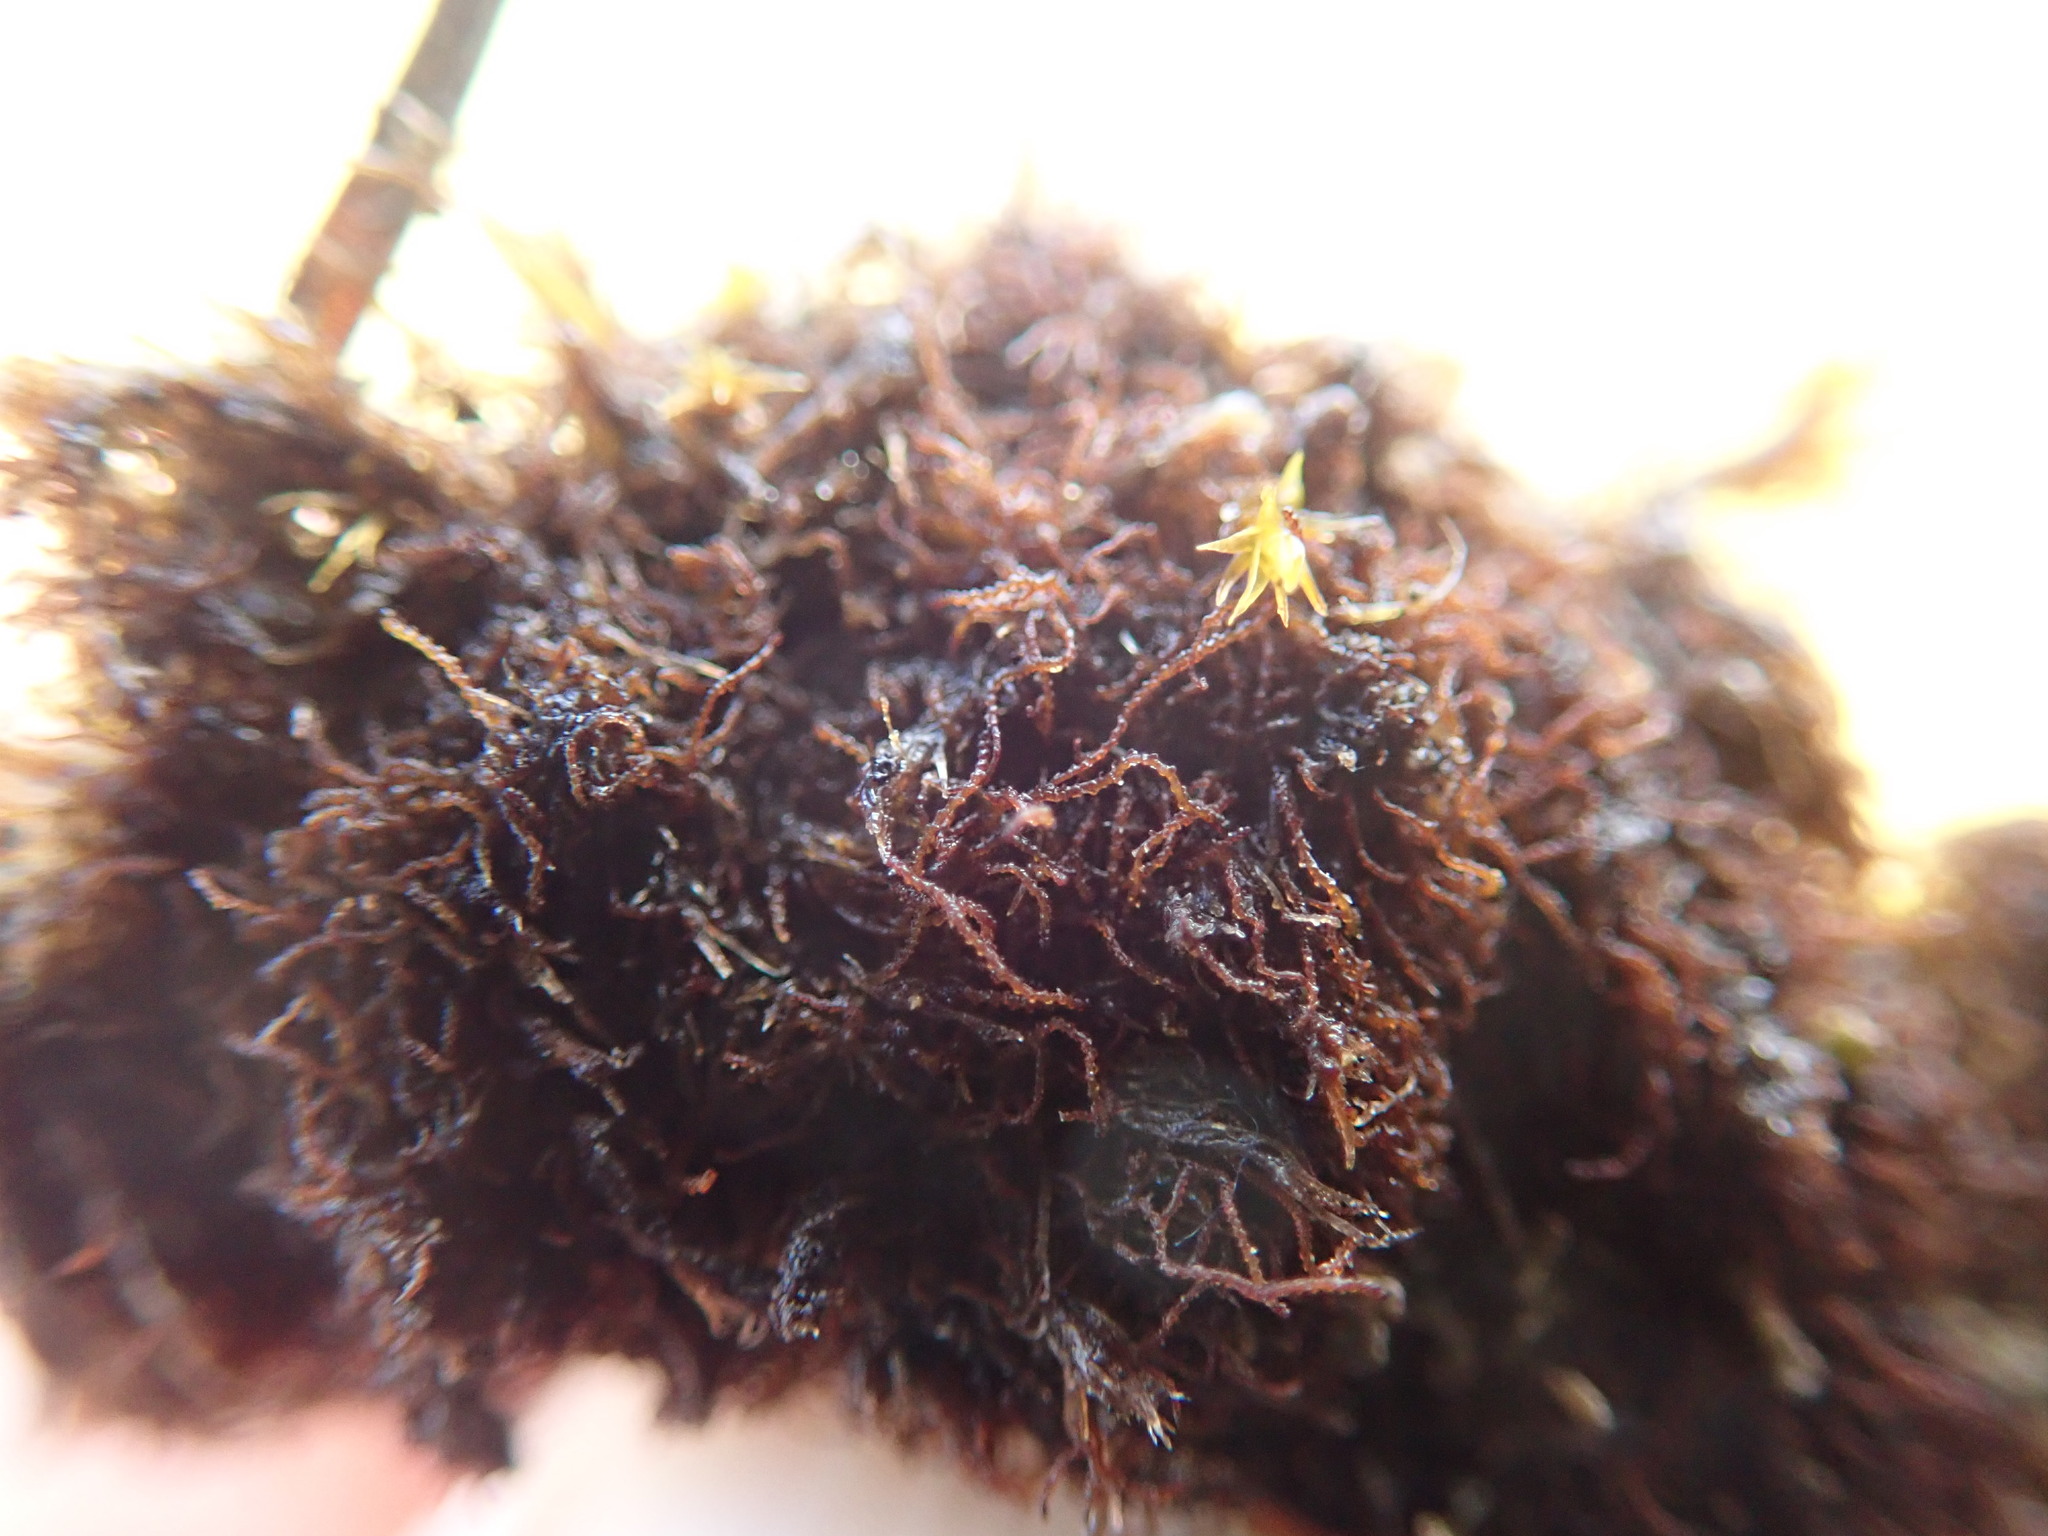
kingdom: Plantae
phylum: Marchantiophyta
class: Jungermanniopsida
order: Jungermanniales
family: Cephaloziellaceae
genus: Cephaloziella
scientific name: Cephaloziella divaricata
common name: Spreading threadwort
